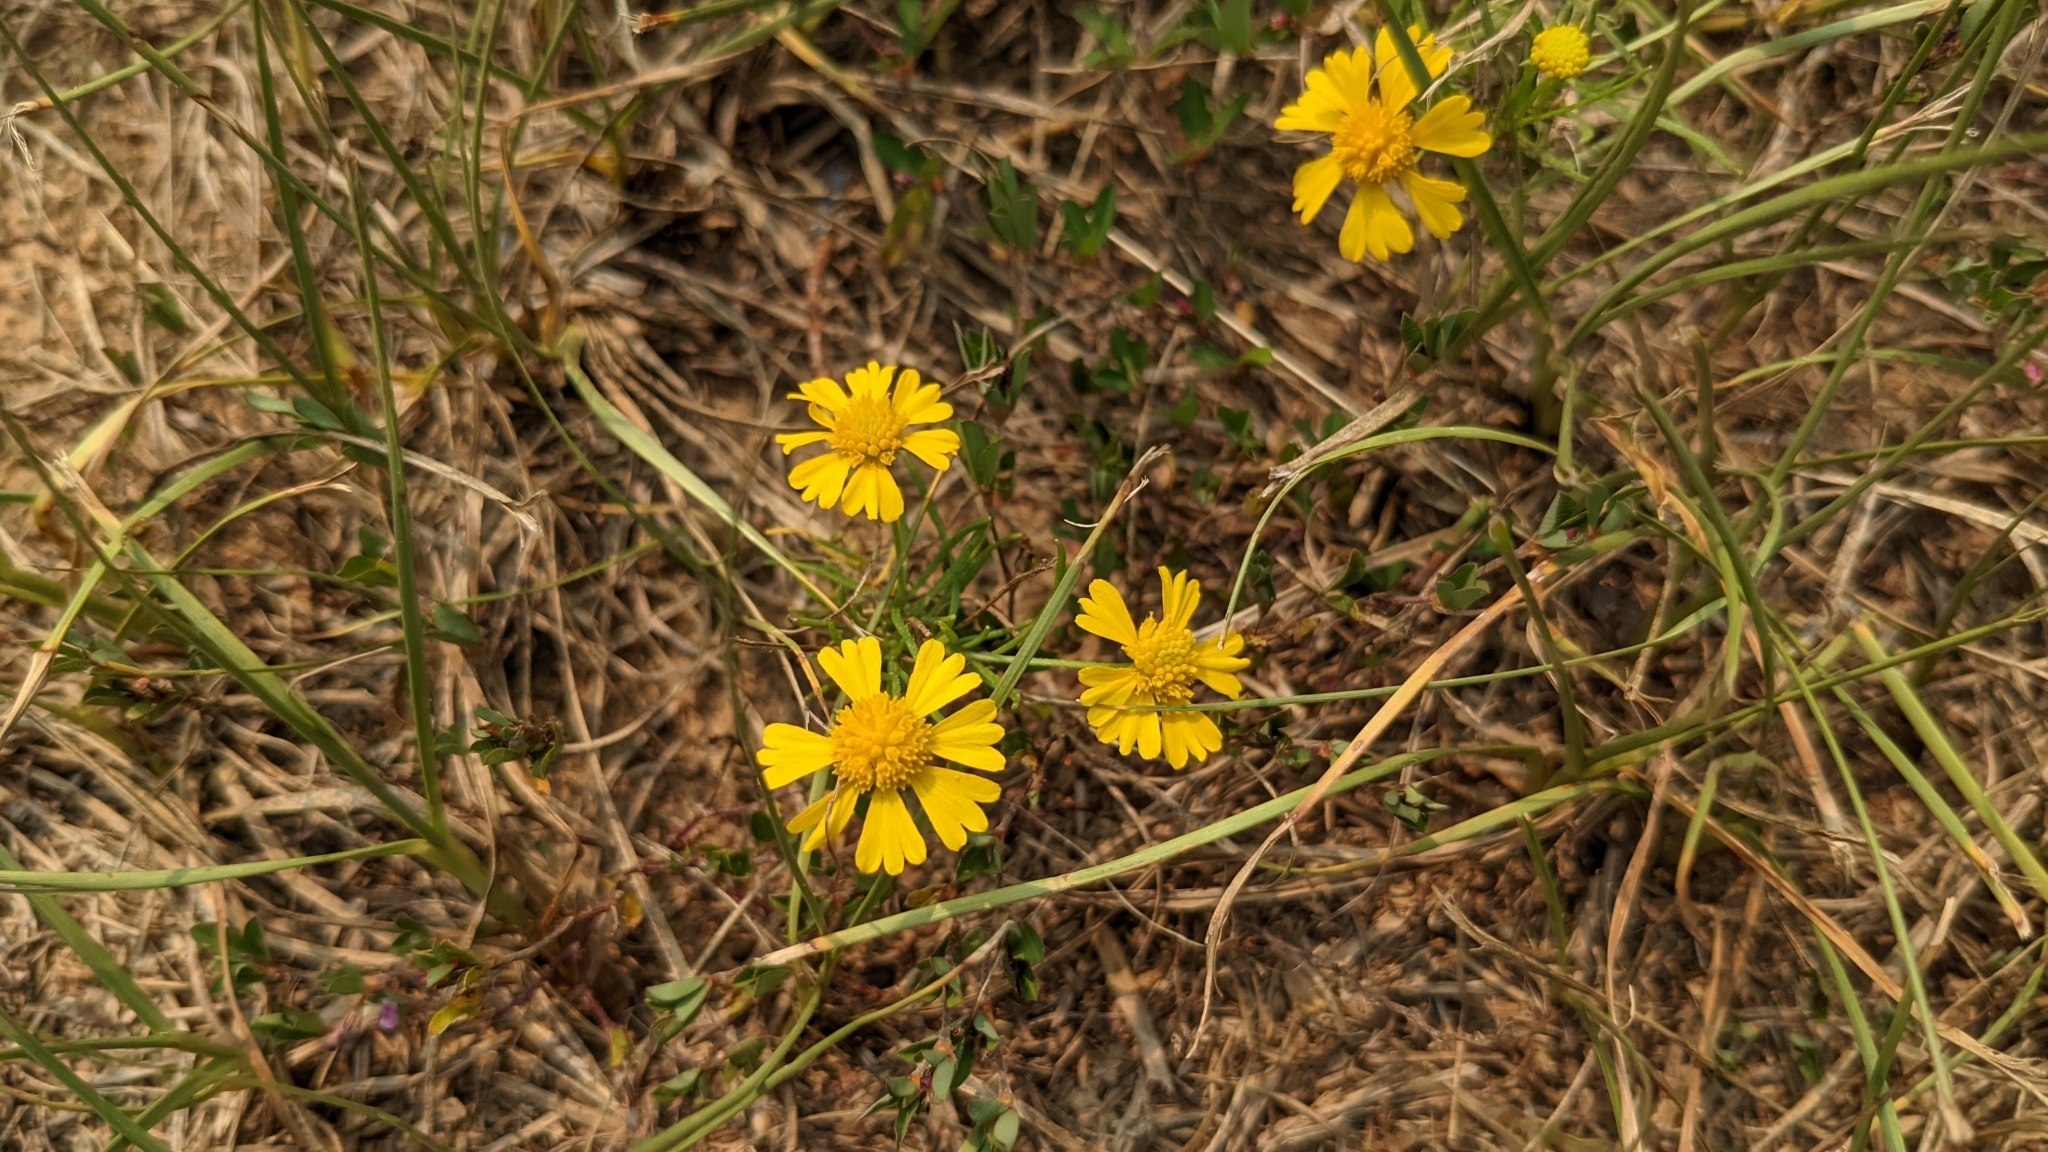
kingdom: Plantae
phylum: Tracheophyta
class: Magnoliopsida
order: Asterales
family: Asteraceae
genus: Helenium
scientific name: Helenium amarum
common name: Bitter sneezeweed
